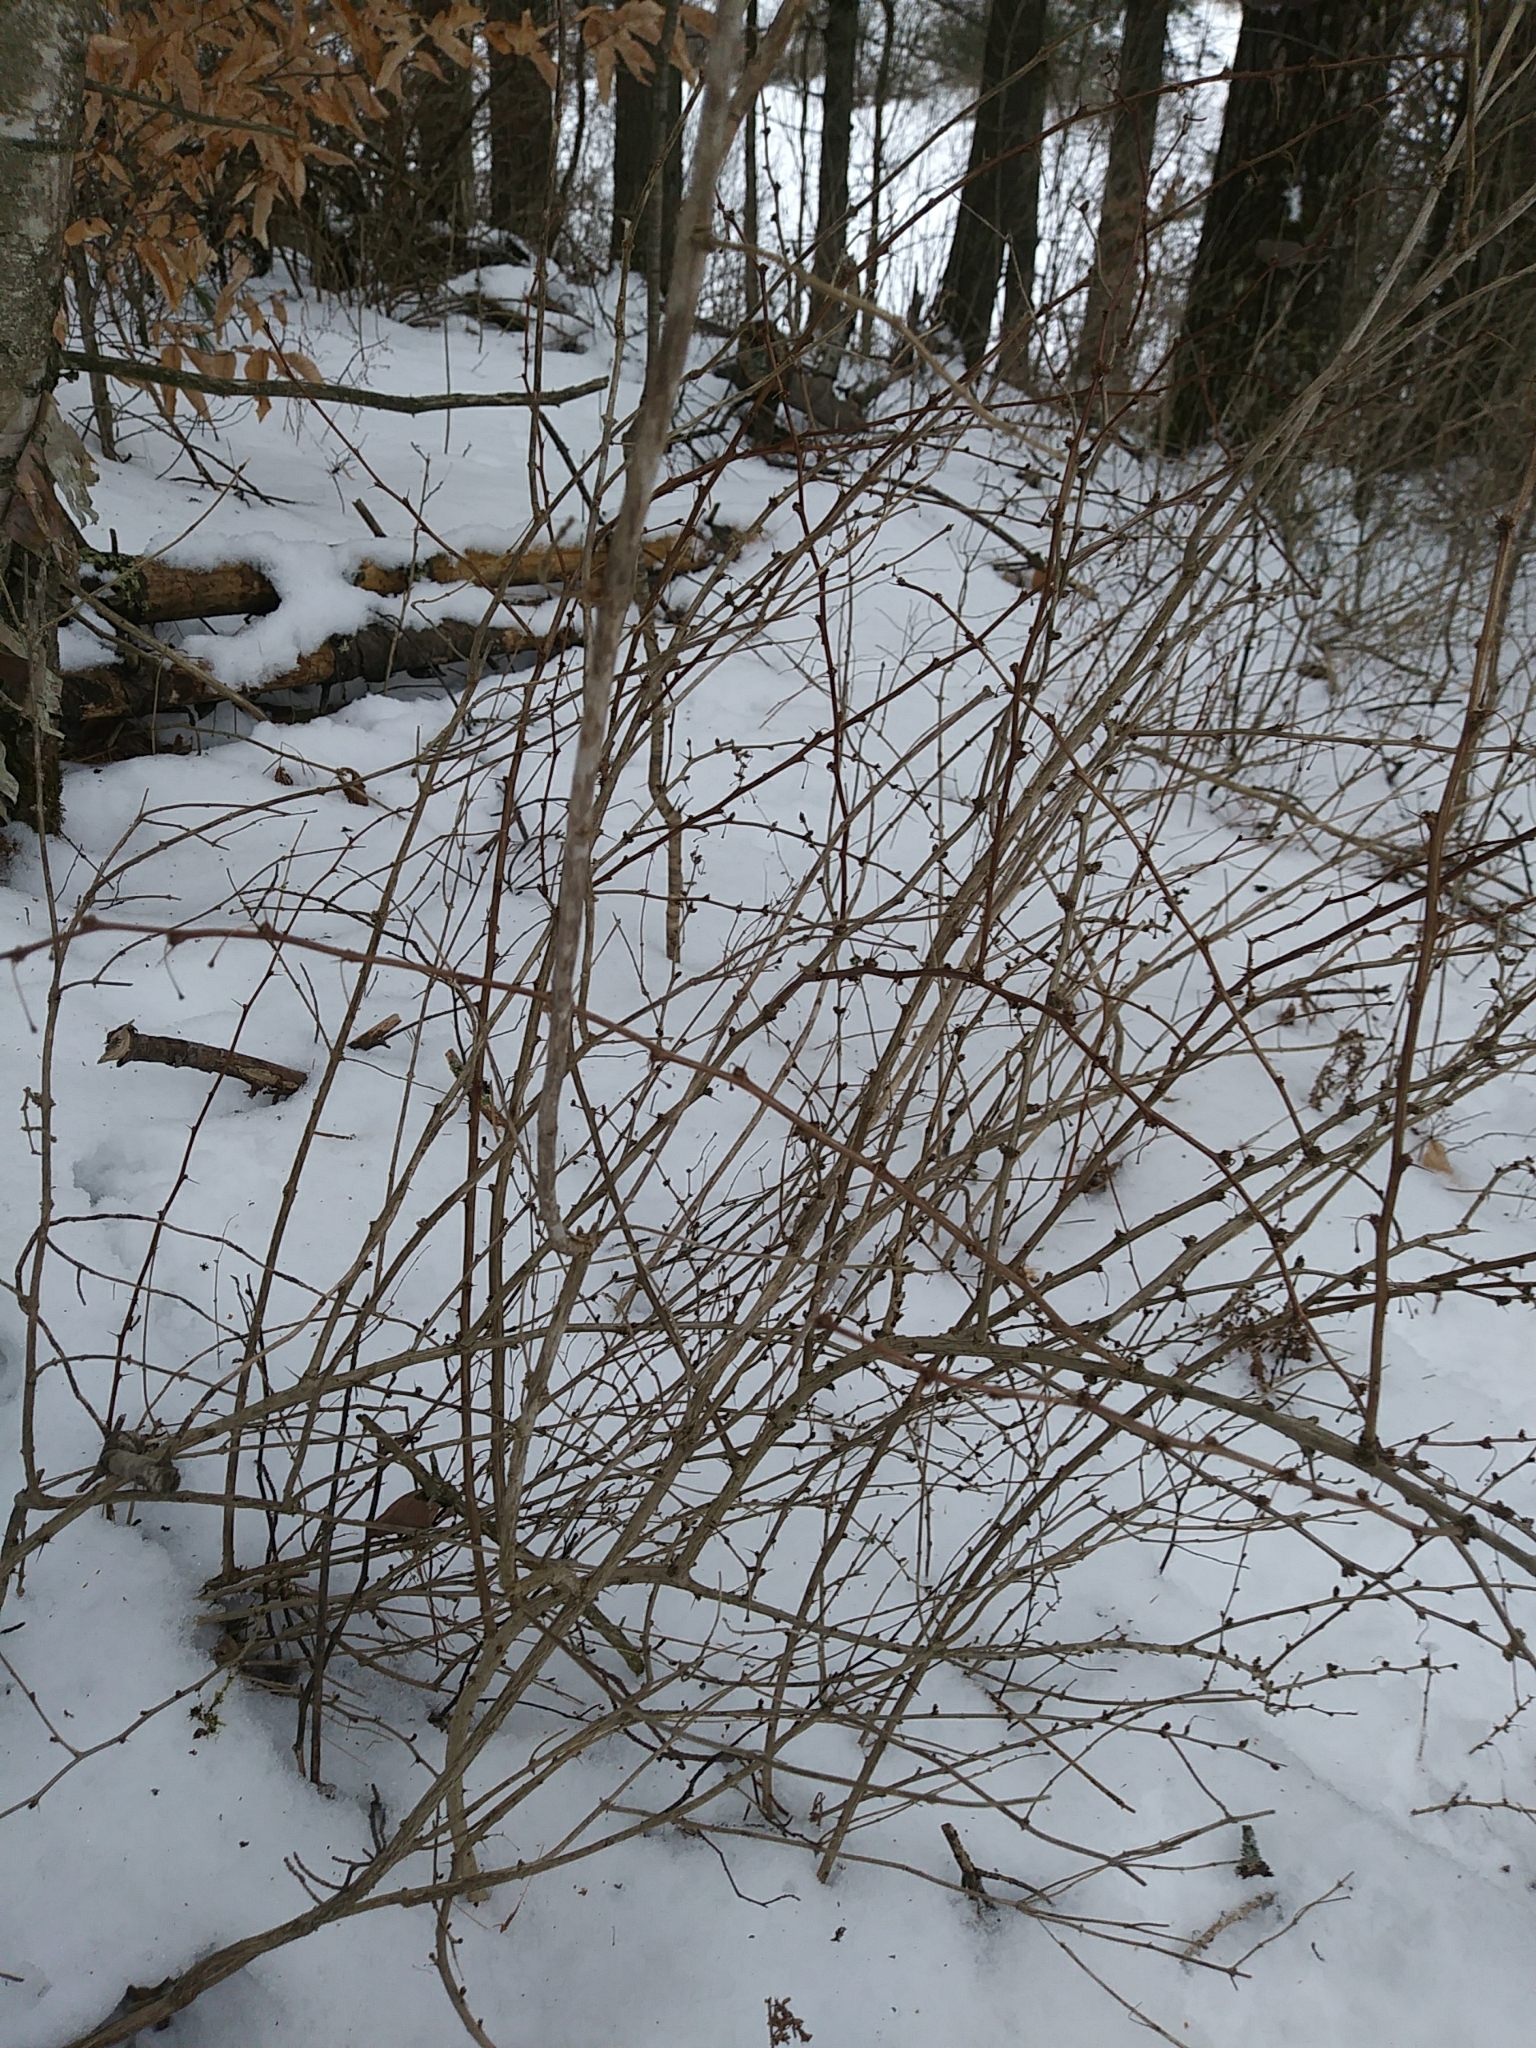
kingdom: Plantae
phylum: Tracheophyta
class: Magnoliopsida
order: Ranunculales
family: Berberidaceae
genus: Berberis
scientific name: Berberis thunbergii
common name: Japanese barberry
